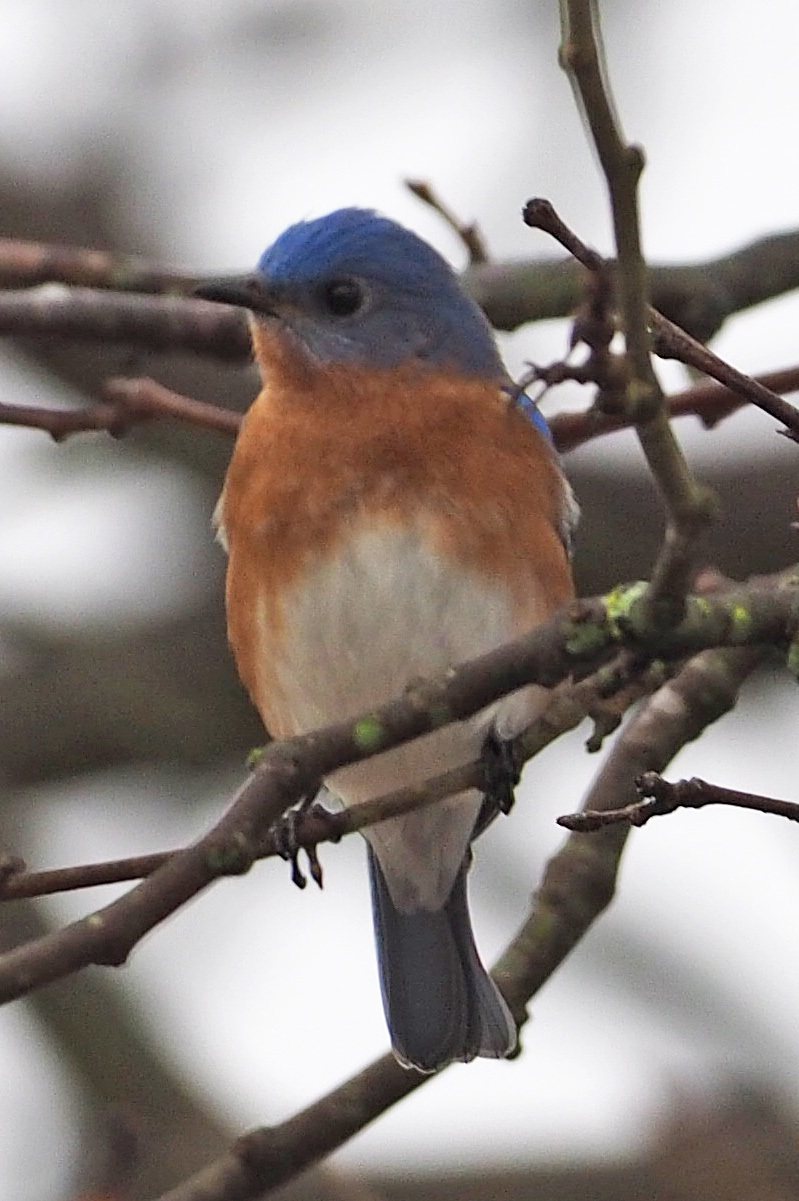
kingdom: Animalia
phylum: Chordata
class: Aves
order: Passeriformes
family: Turdidae
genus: Sialia
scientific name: Sialia sialis
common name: Eastern bluebird
